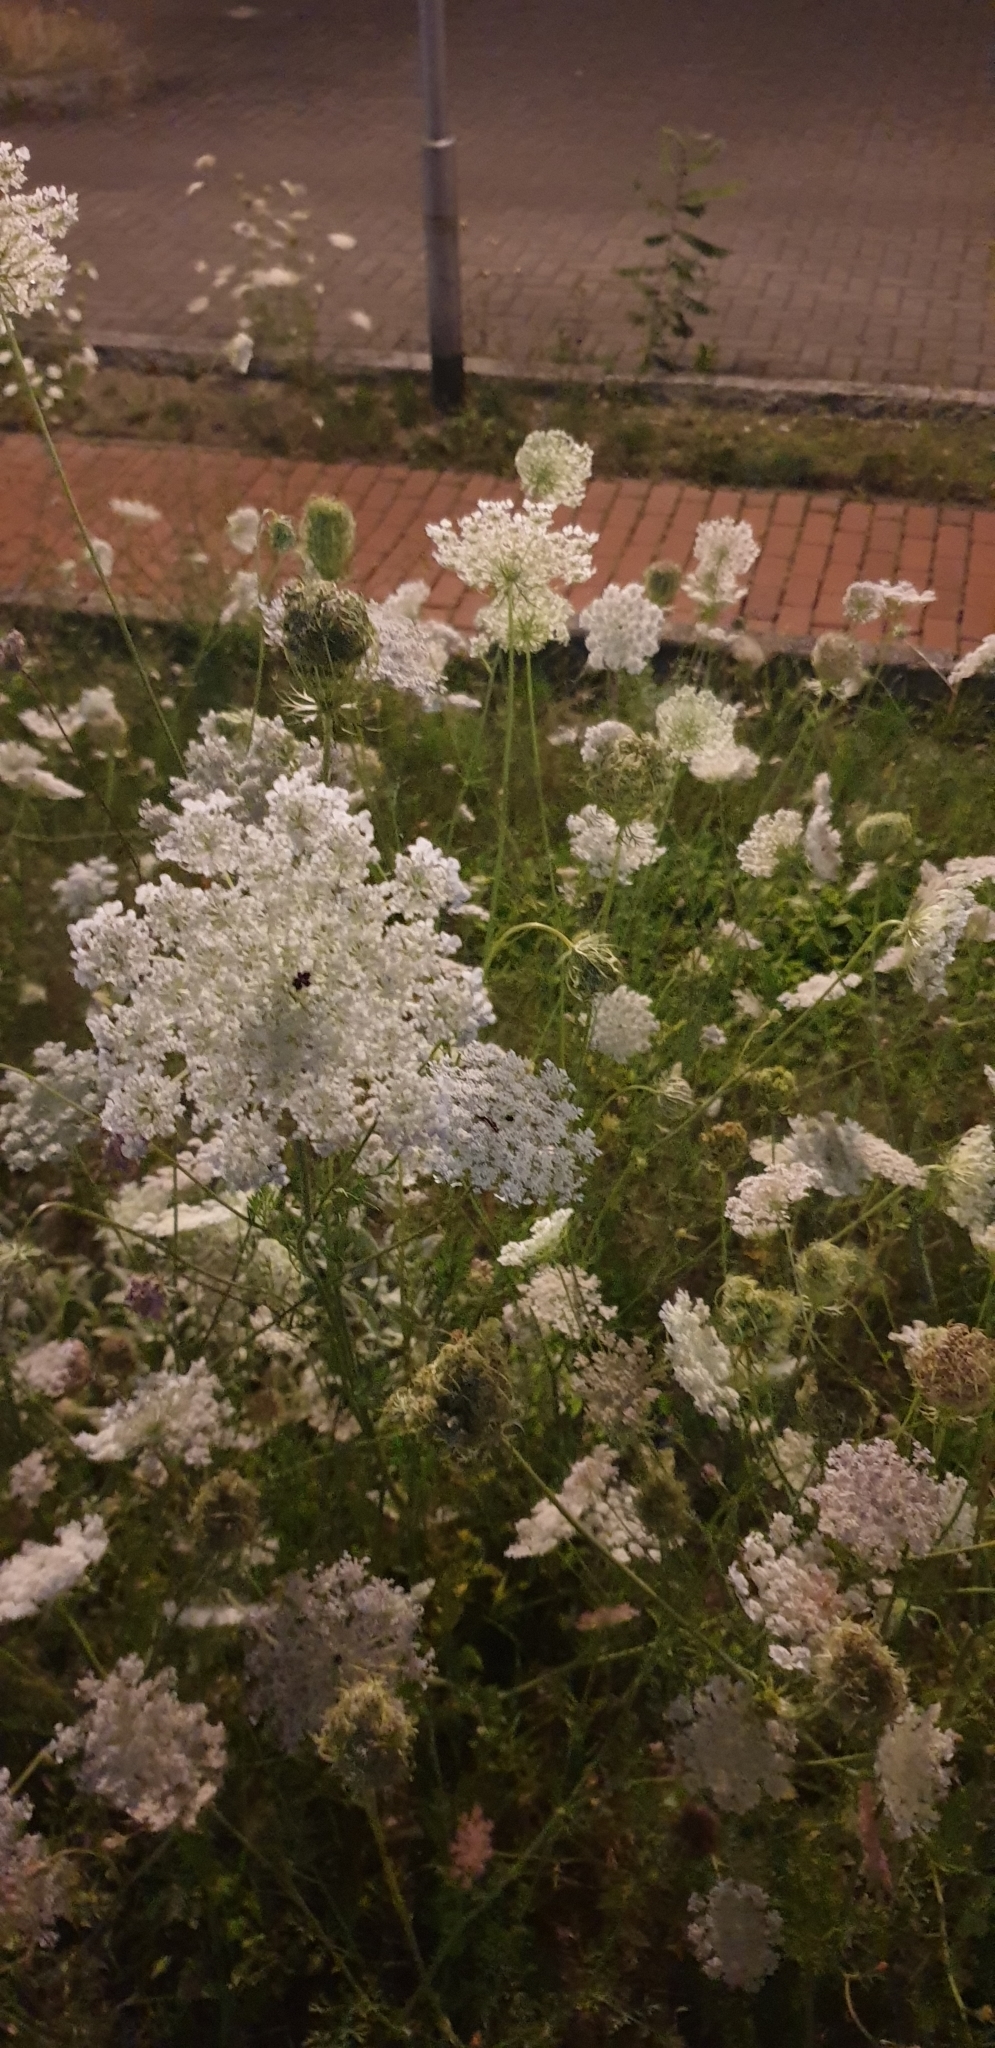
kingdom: Plantae
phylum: Tracheophyta
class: Magnoliopsida
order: Apiales
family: Apiaceae
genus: Daucus
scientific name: Daucus carota
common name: Wild carrot
